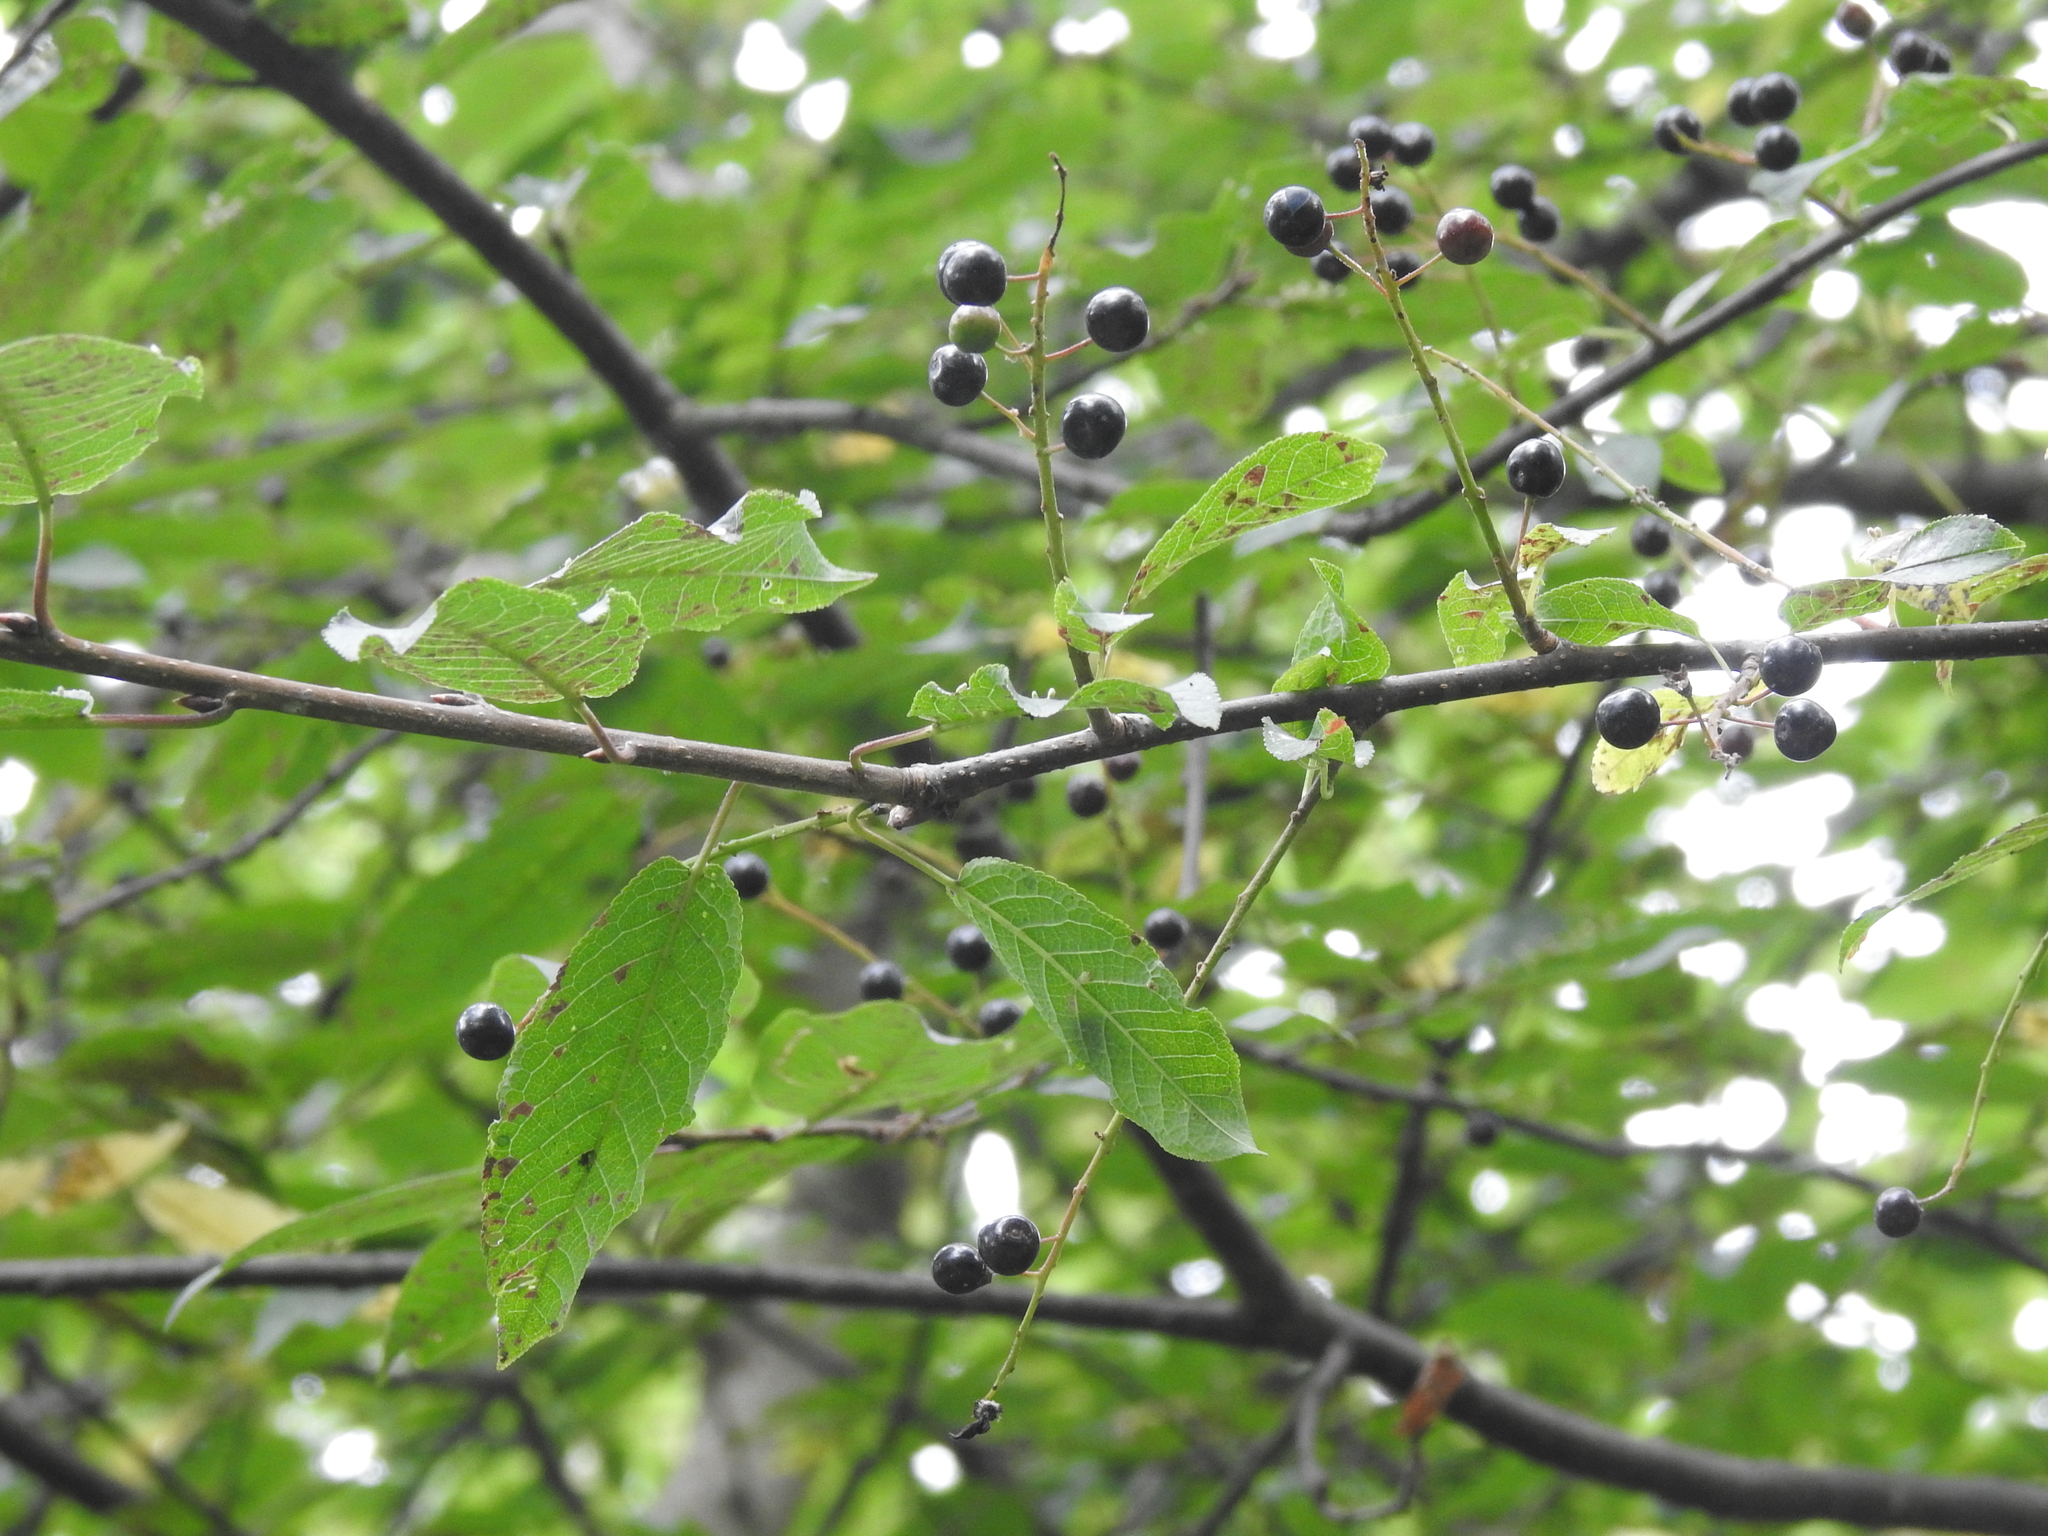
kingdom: Plantae
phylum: Tracheophyta
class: Magnoliopsida
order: Rosales
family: Rosaceae
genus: Prunus
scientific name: Prunus padus
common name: Bird cherry
